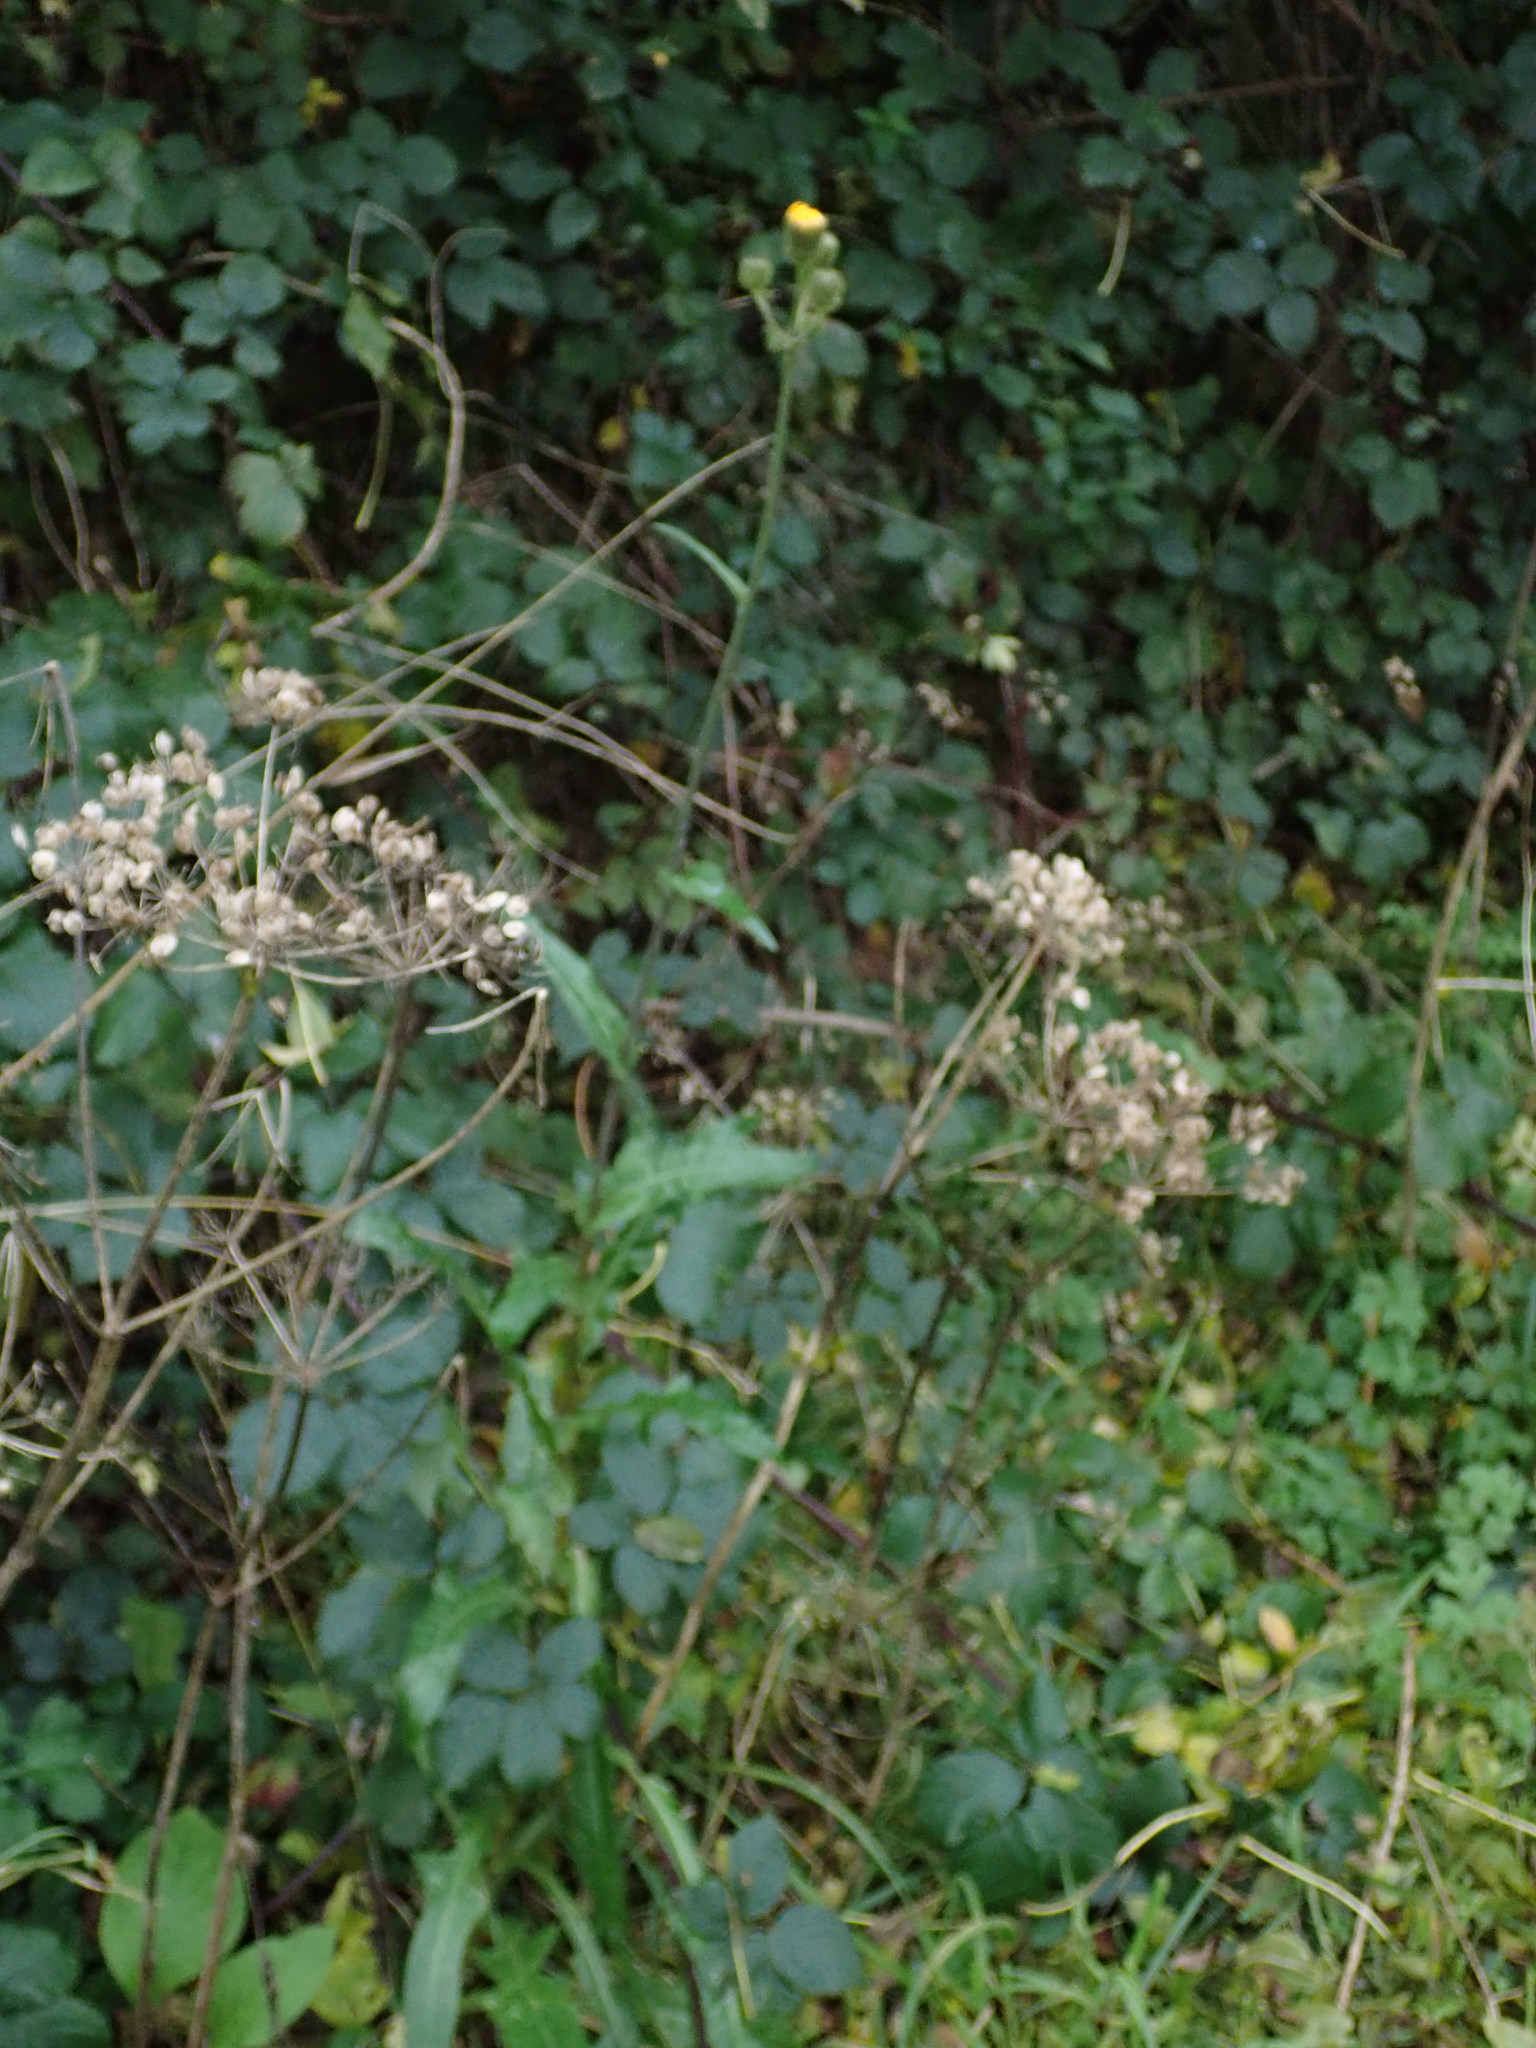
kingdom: Plantae
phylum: Tracheophyta
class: Magnoliopsida
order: Asterales
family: Asteraceae
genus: Sonchus
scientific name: Sonchus arvensis
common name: Perennial sow-thistle
